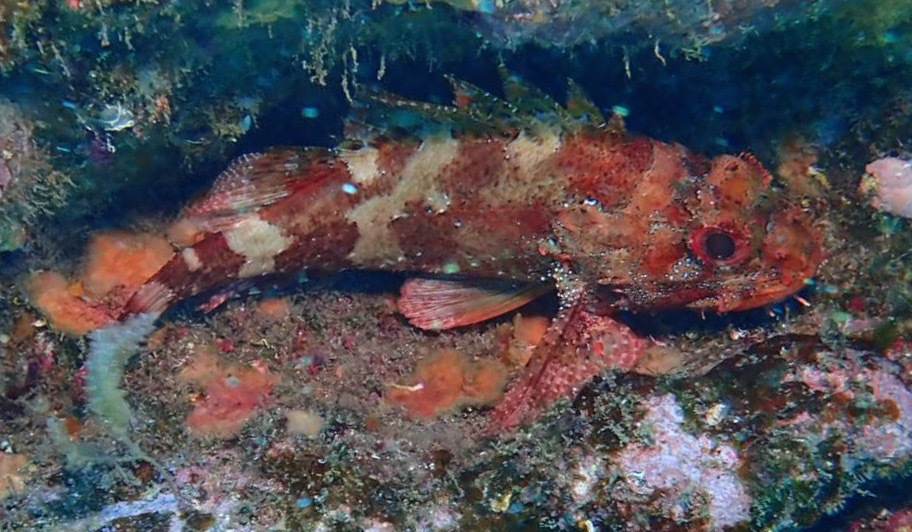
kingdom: Animalia
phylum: Chordata
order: Scorpaeniformes
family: Scorpaenidae
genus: Scorpaena
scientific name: Scorpaena maderensis
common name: Madeira rockfish
